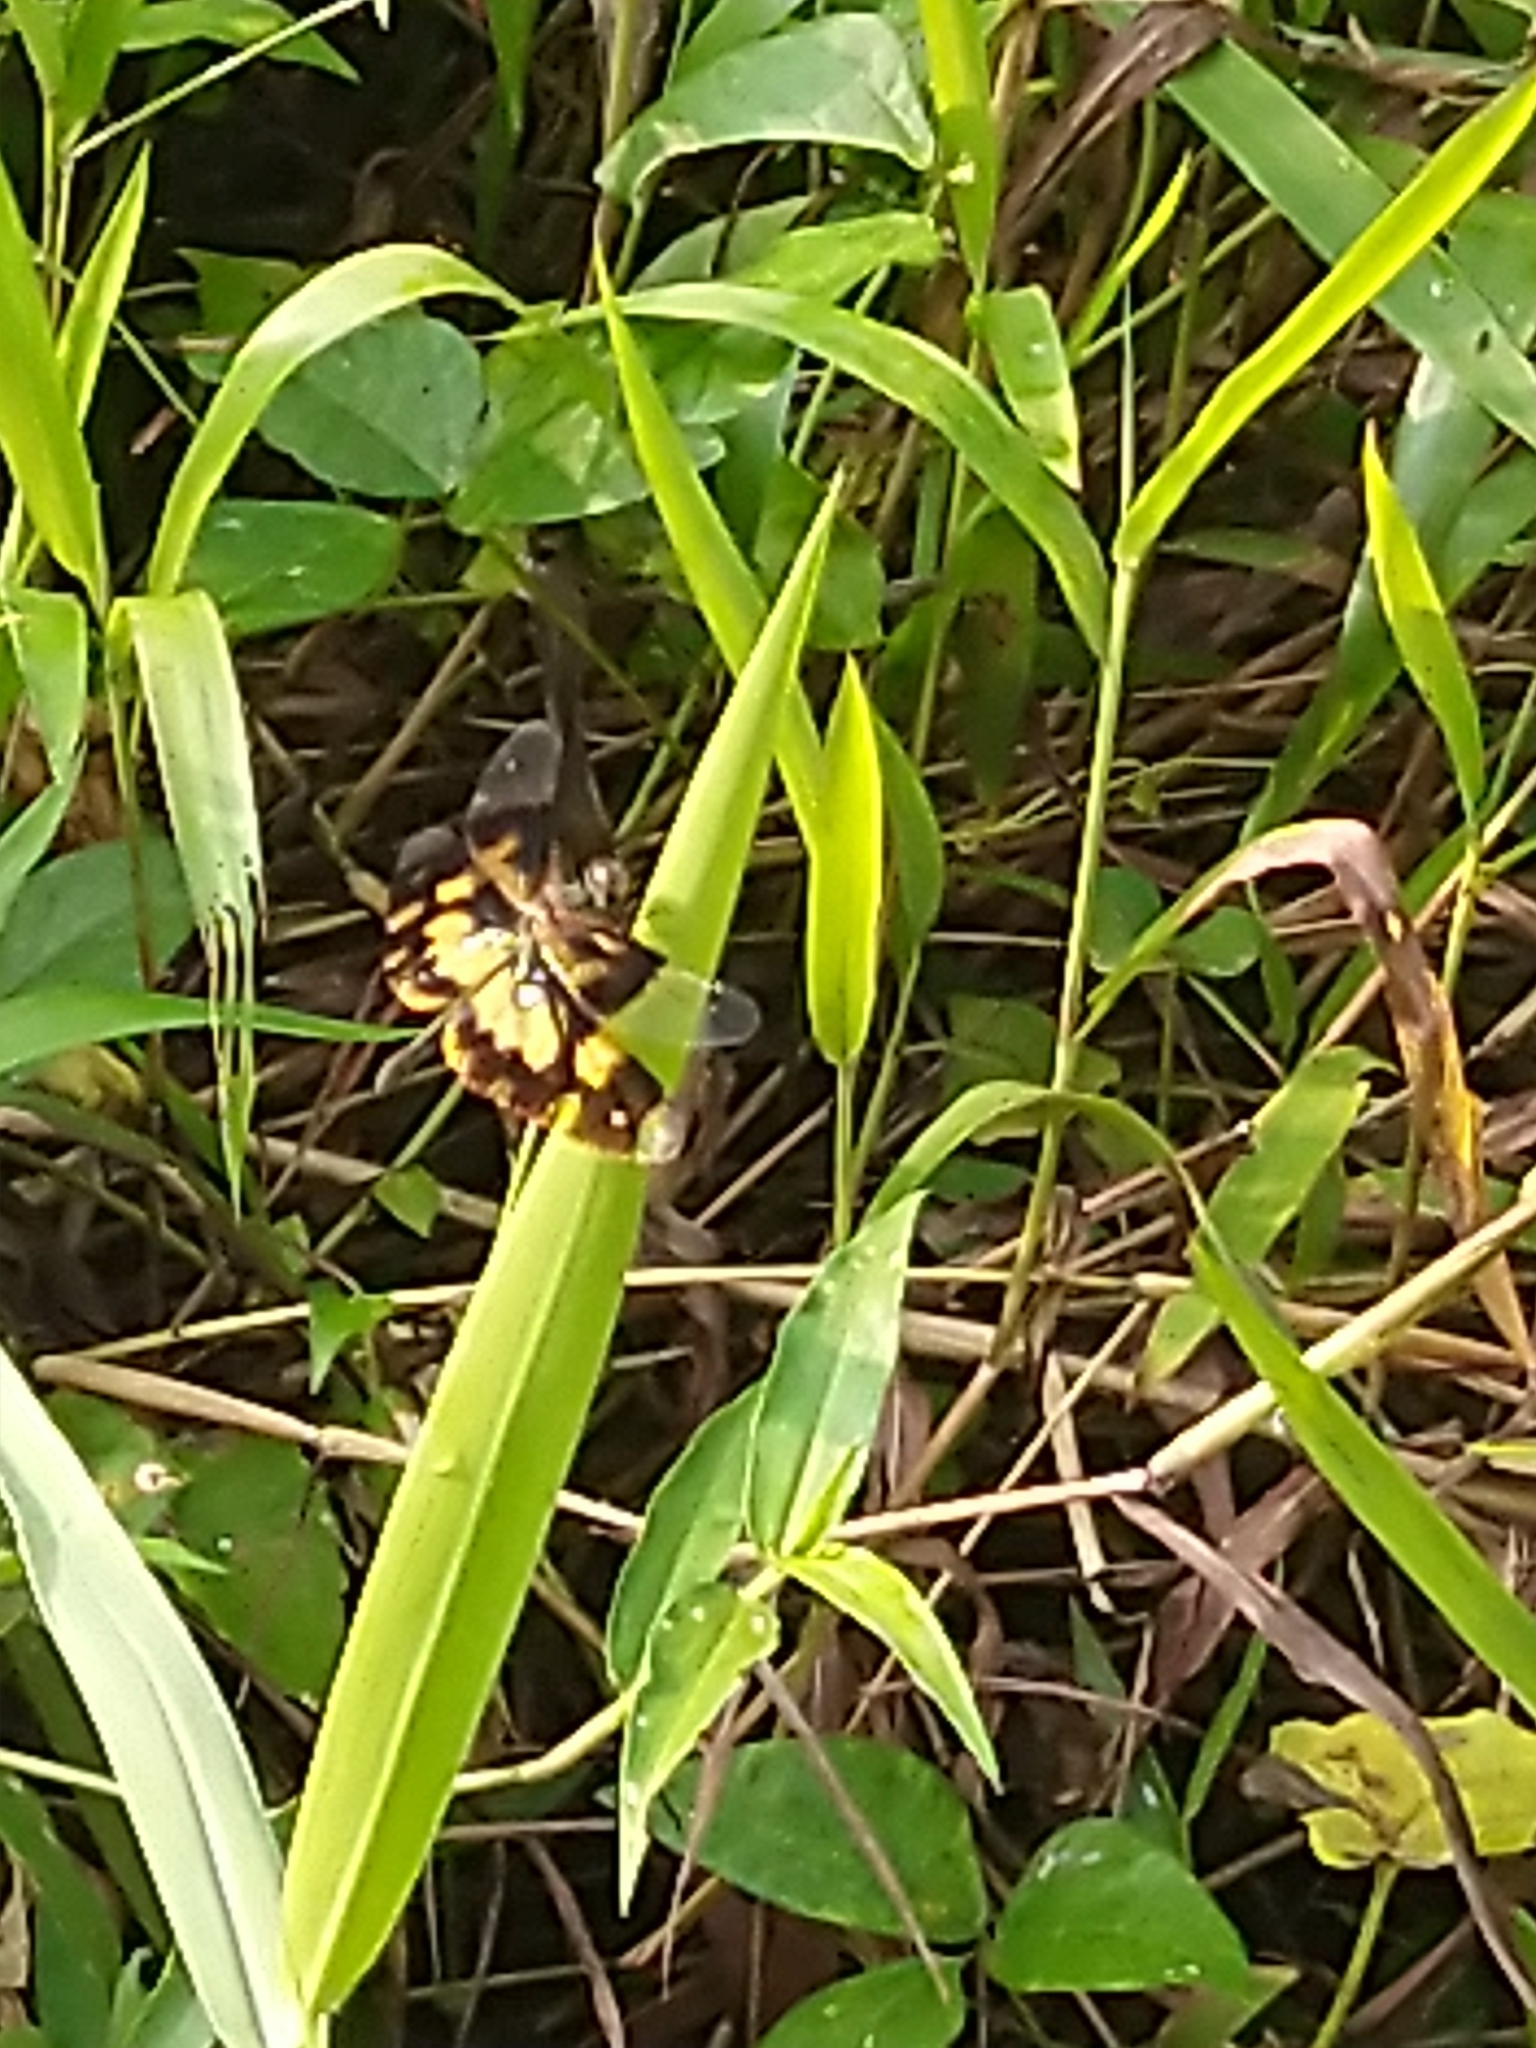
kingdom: Animalia
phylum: Arthropoda
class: Insecta
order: Odonata
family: Libellulidae
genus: Rhyothemis
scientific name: Rhyothemis variegata
